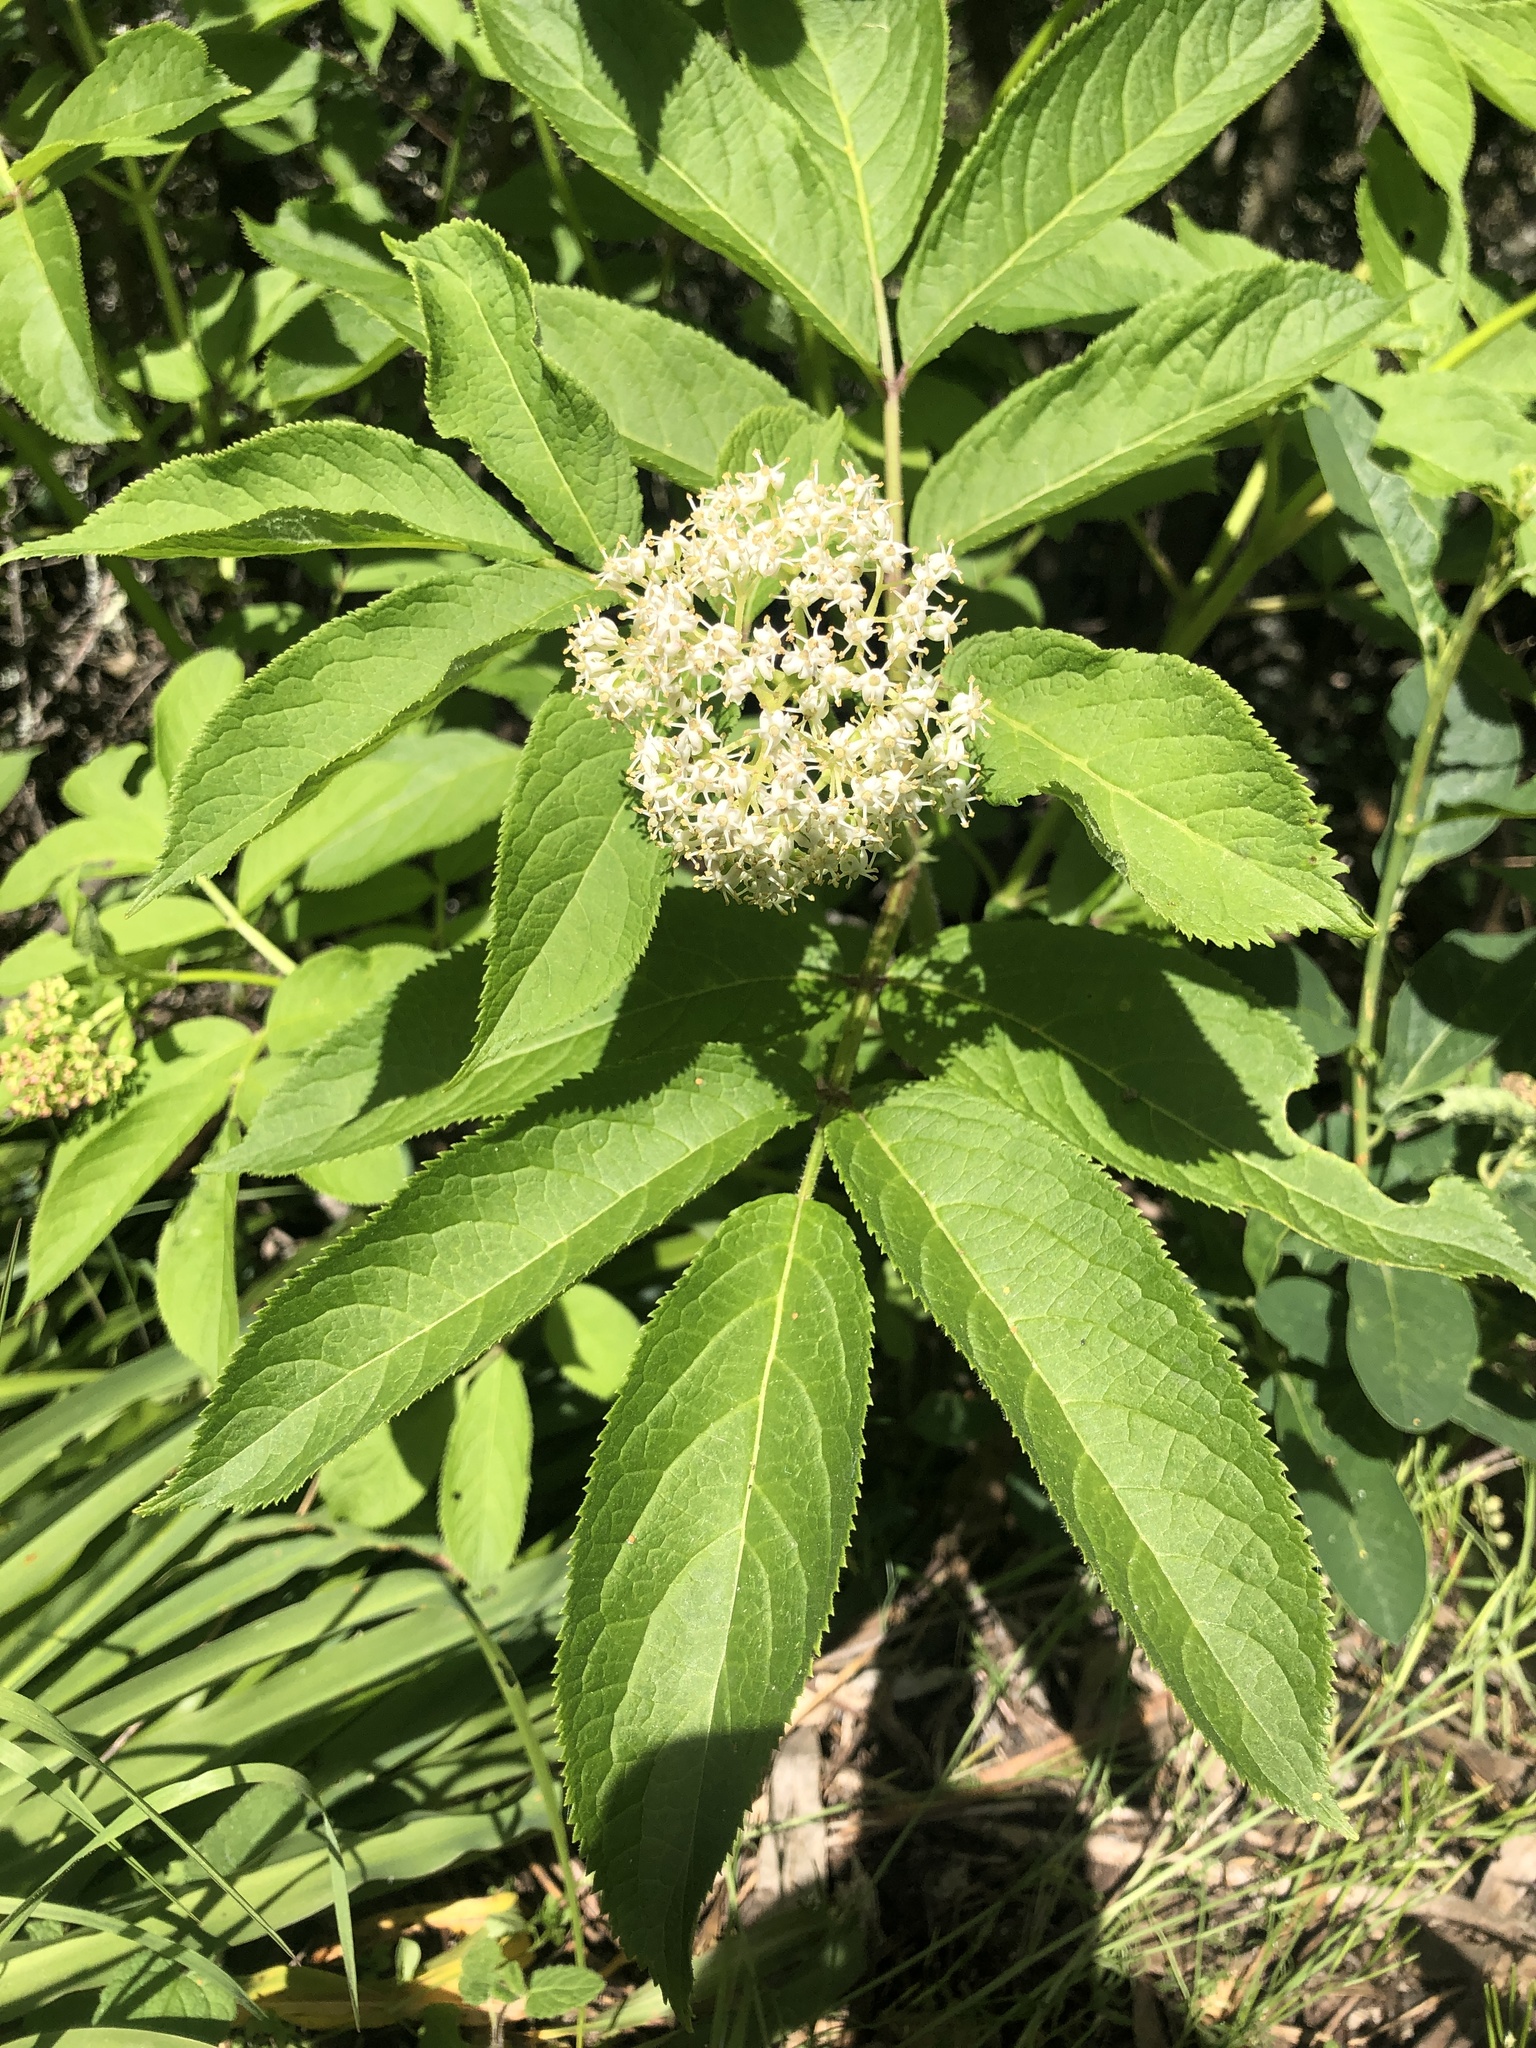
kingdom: Plantae
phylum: Tracheophyta
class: Magnoliopsida
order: Dipsacales
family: Viburnaceae
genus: Sambucus
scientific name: Sambucus racemosa
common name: Red-berried elder
